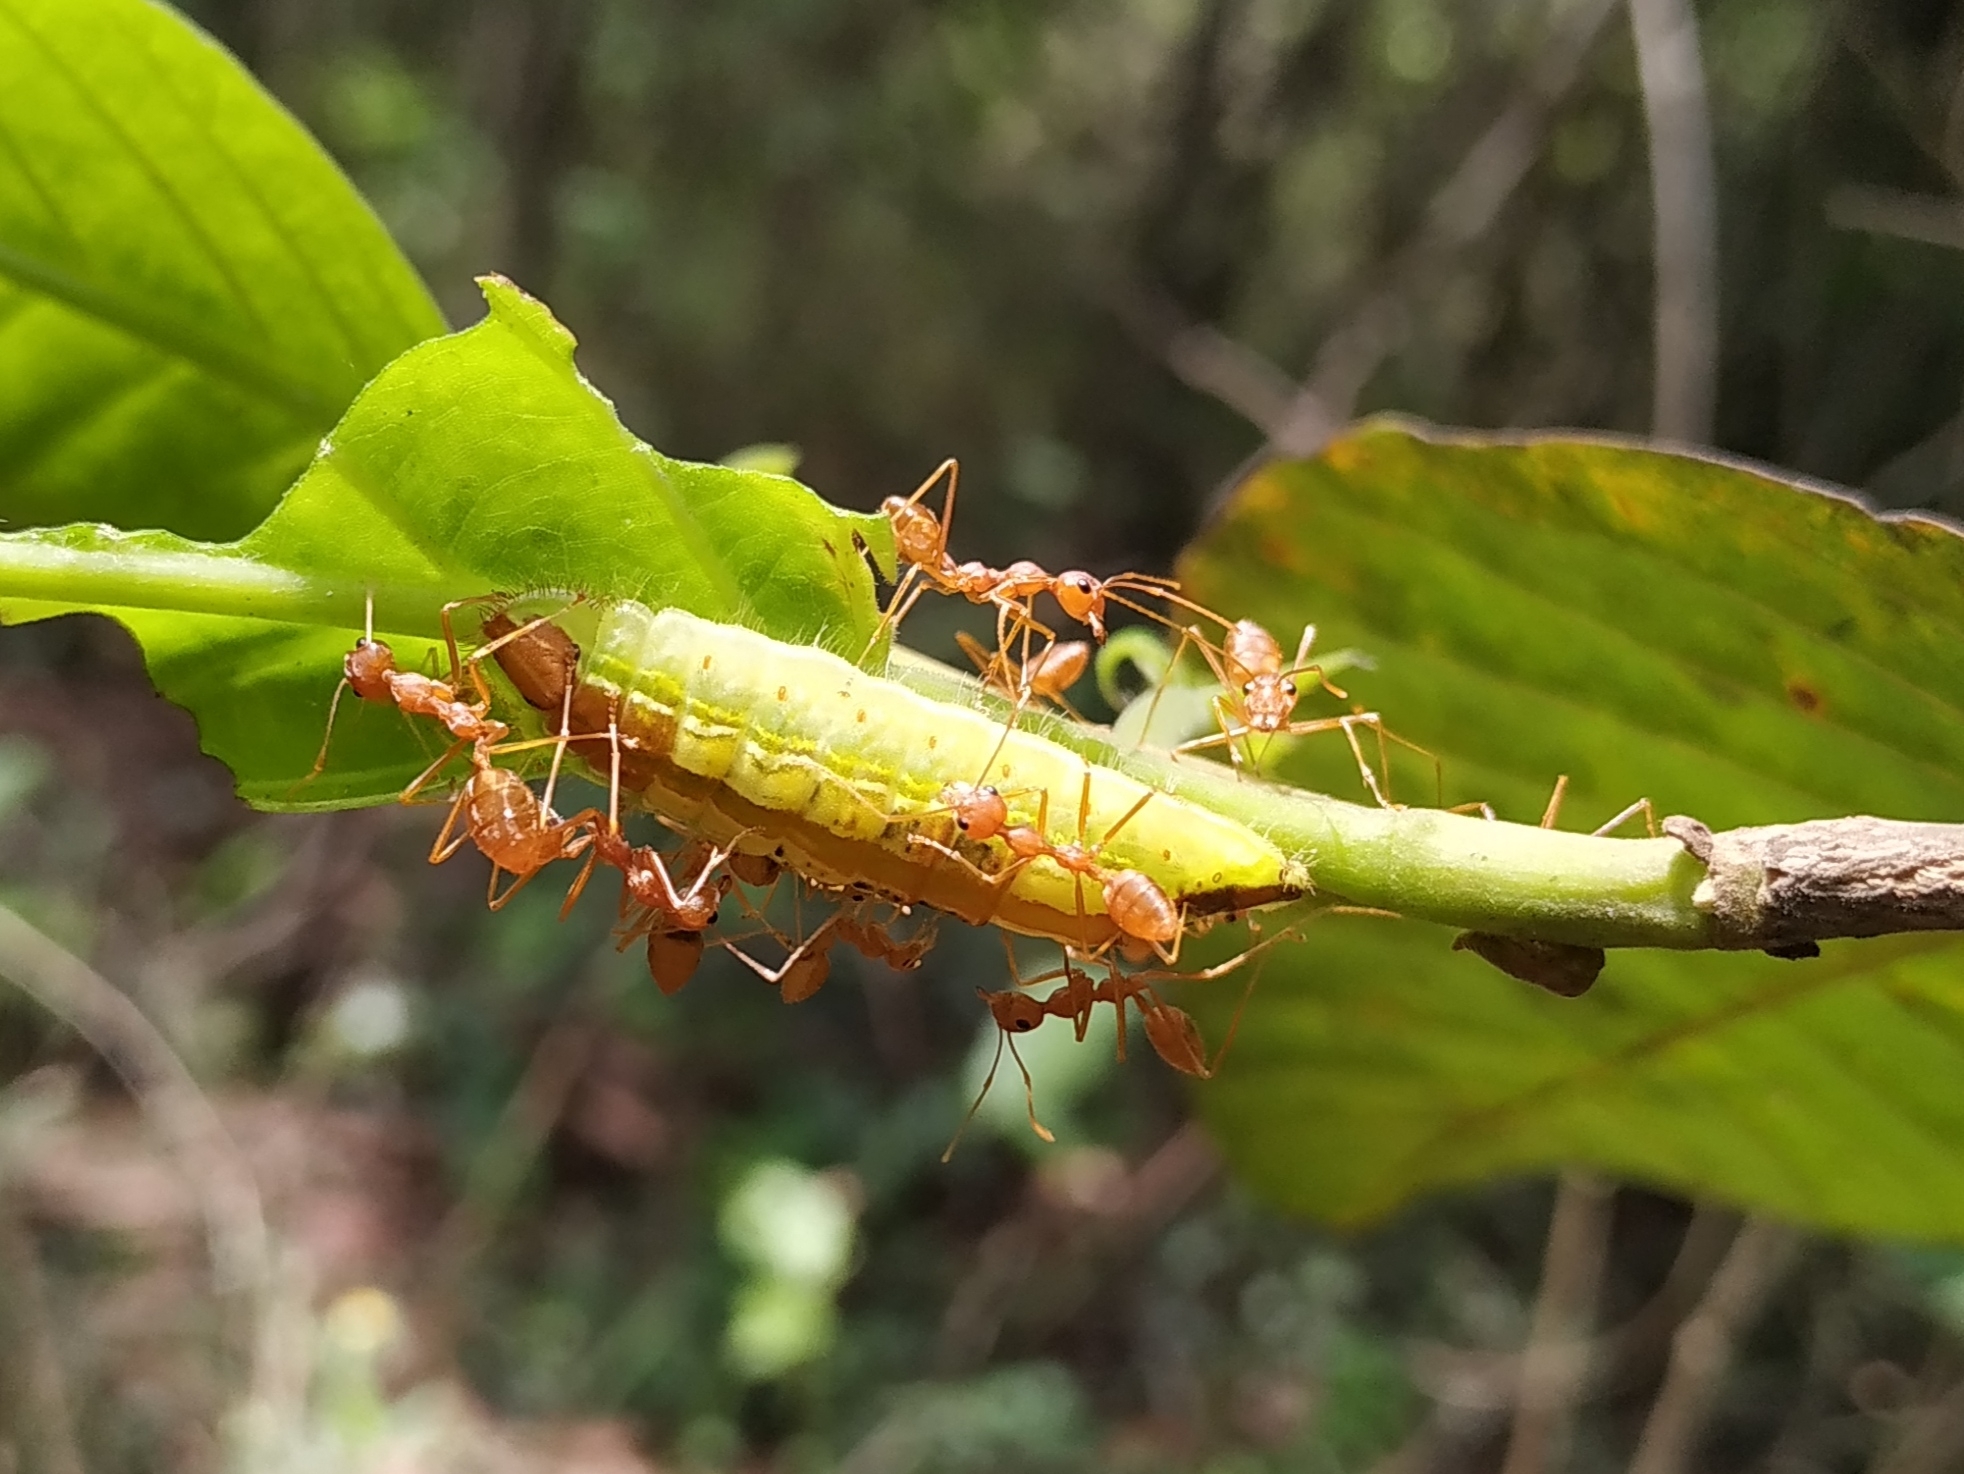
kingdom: Animalia
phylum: Arthropoda
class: Insecta
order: Lepidoptera
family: Lycaenidae
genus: Arhopala
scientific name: Arhopala amantes
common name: Large oakblue
